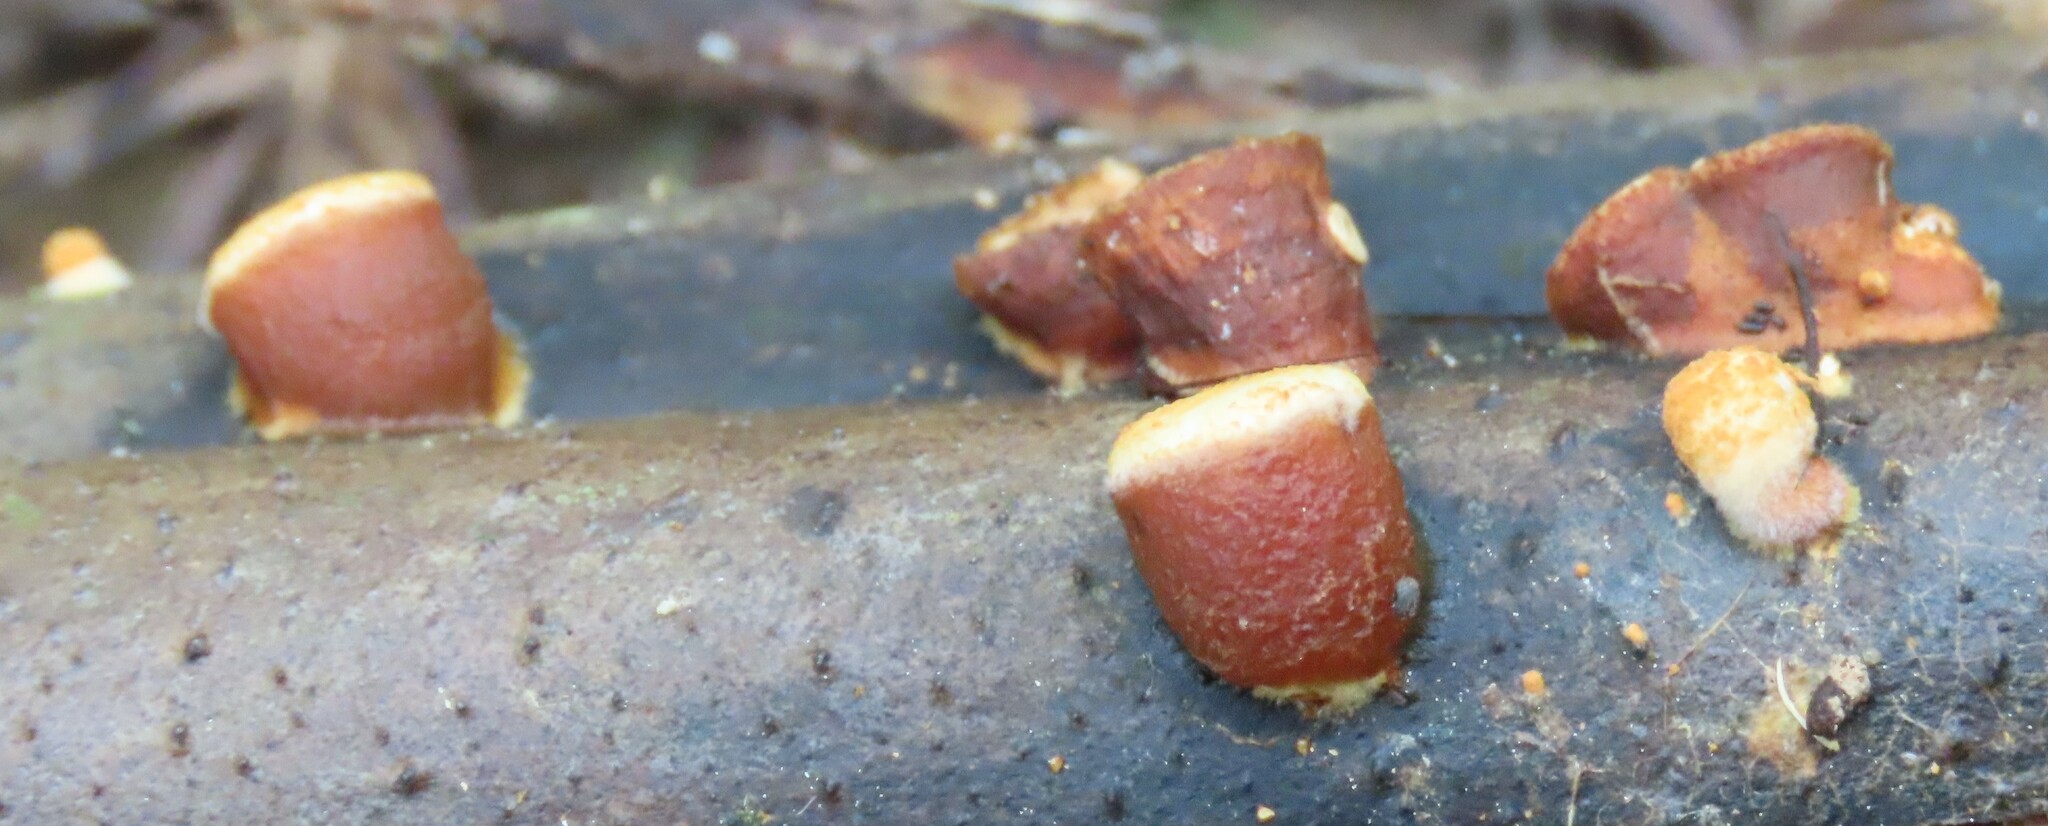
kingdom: Fungi
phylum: Basidiomycota
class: Agaricomycetes
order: Agaricales
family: Nidulariaceae
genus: Crucibulum
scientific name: Crucibulum simile
